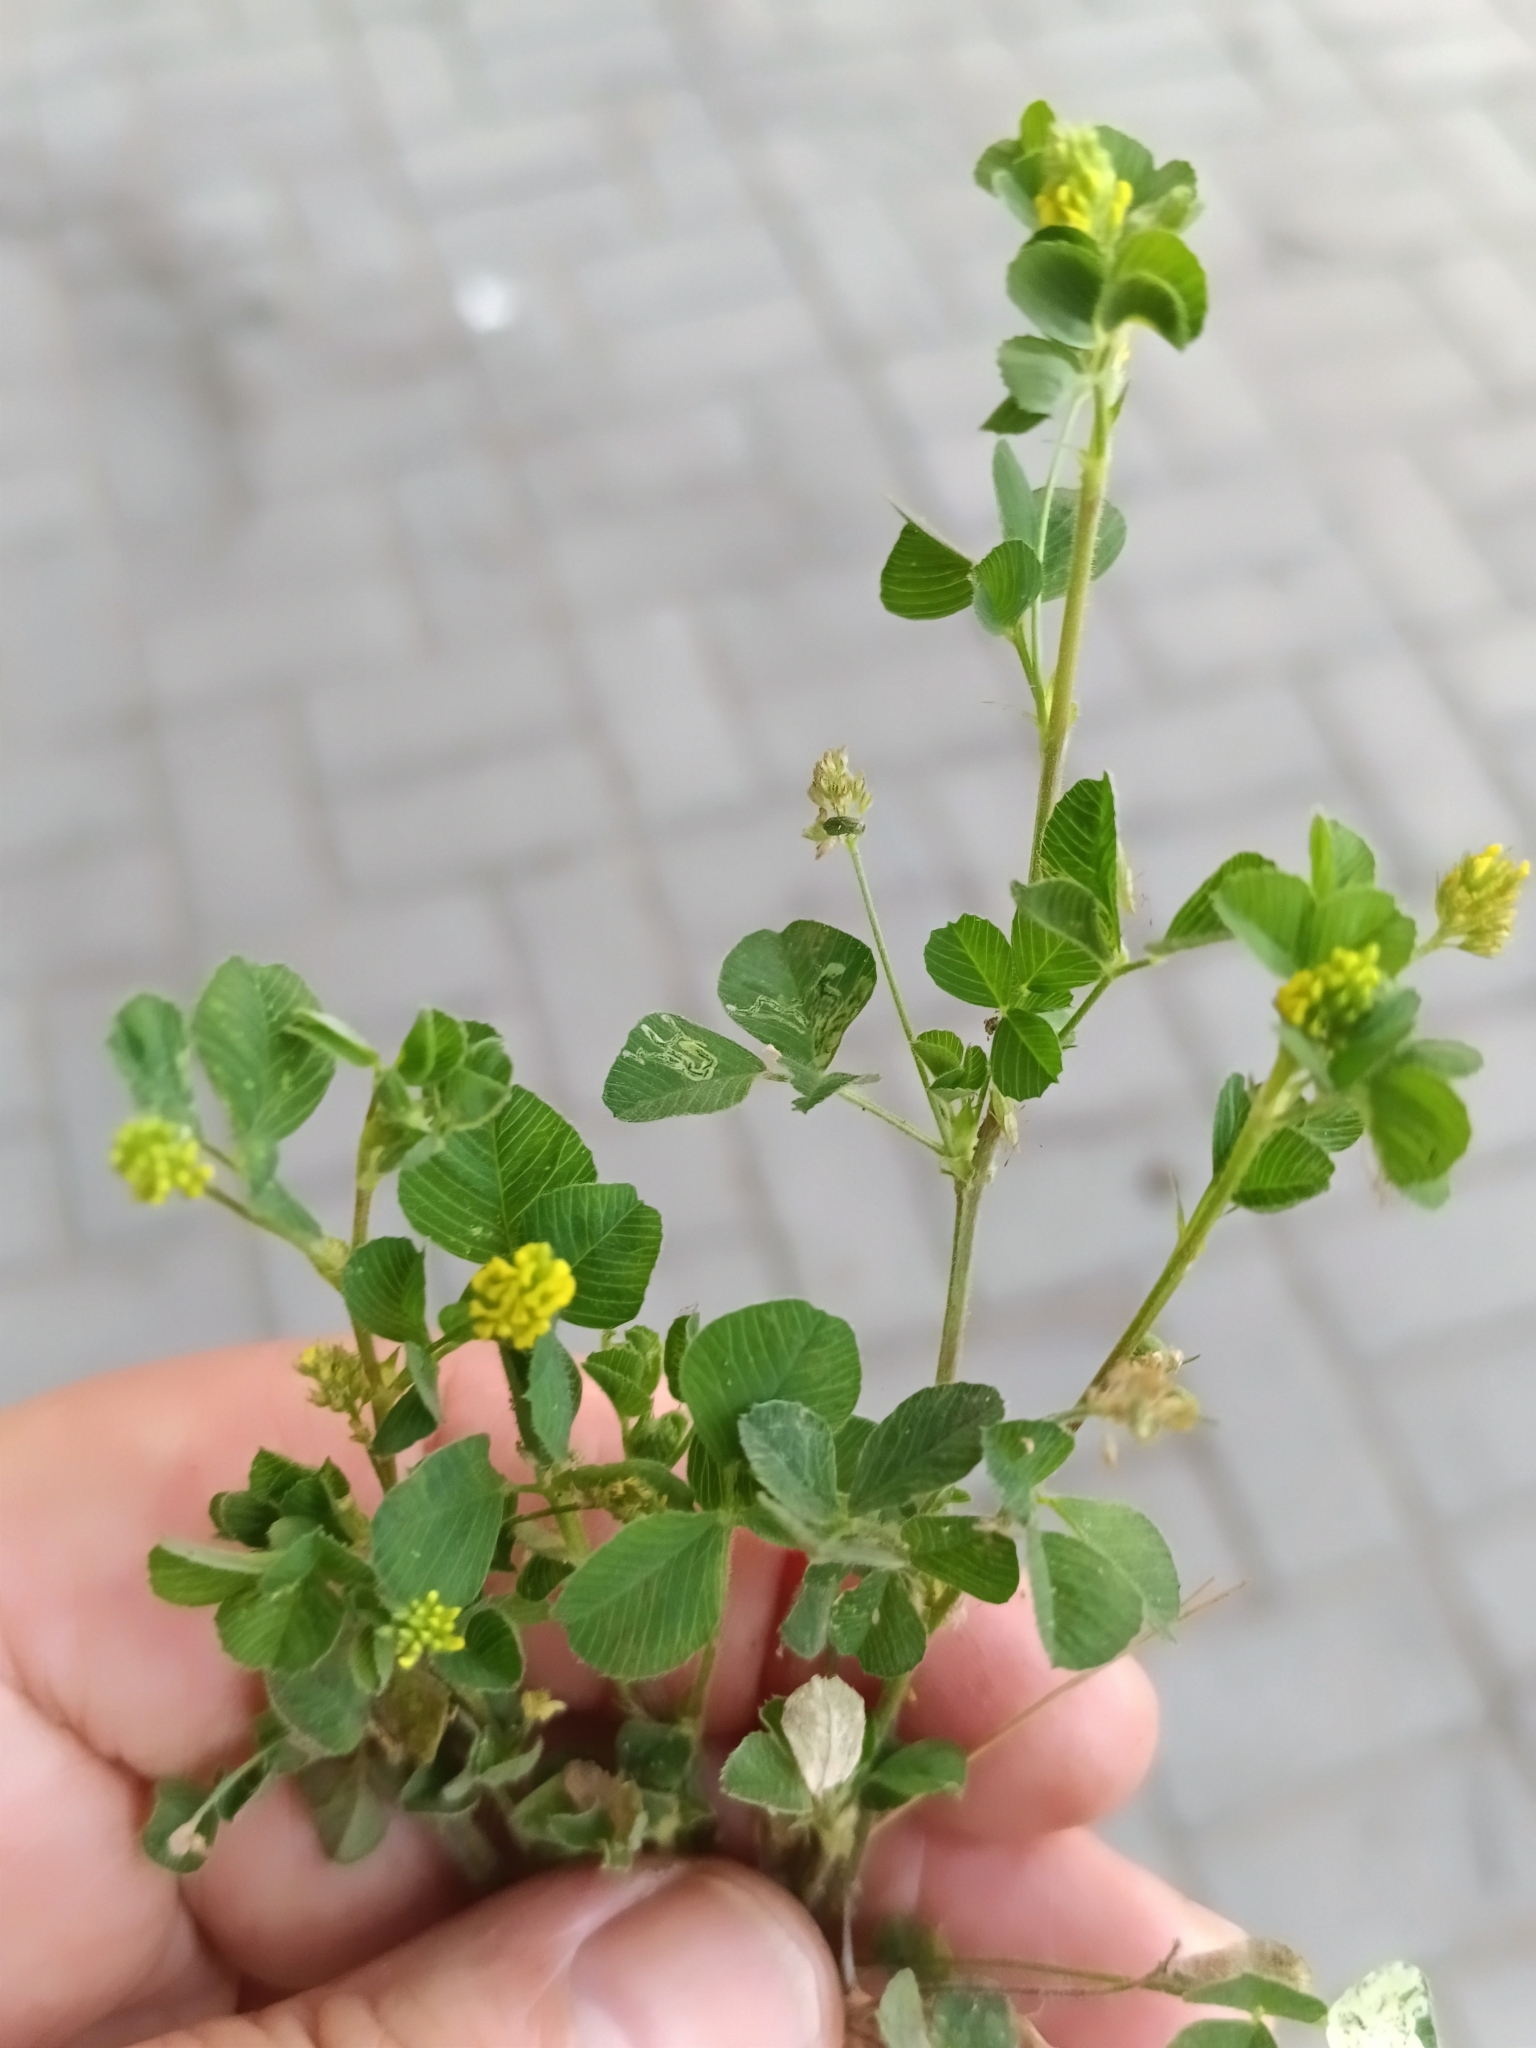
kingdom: Plantae
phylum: Tracheophyta
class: Magnoliopsida
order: Fabales
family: Fabaceae
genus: Medicago
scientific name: Medicago lupulina
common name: Black medick
